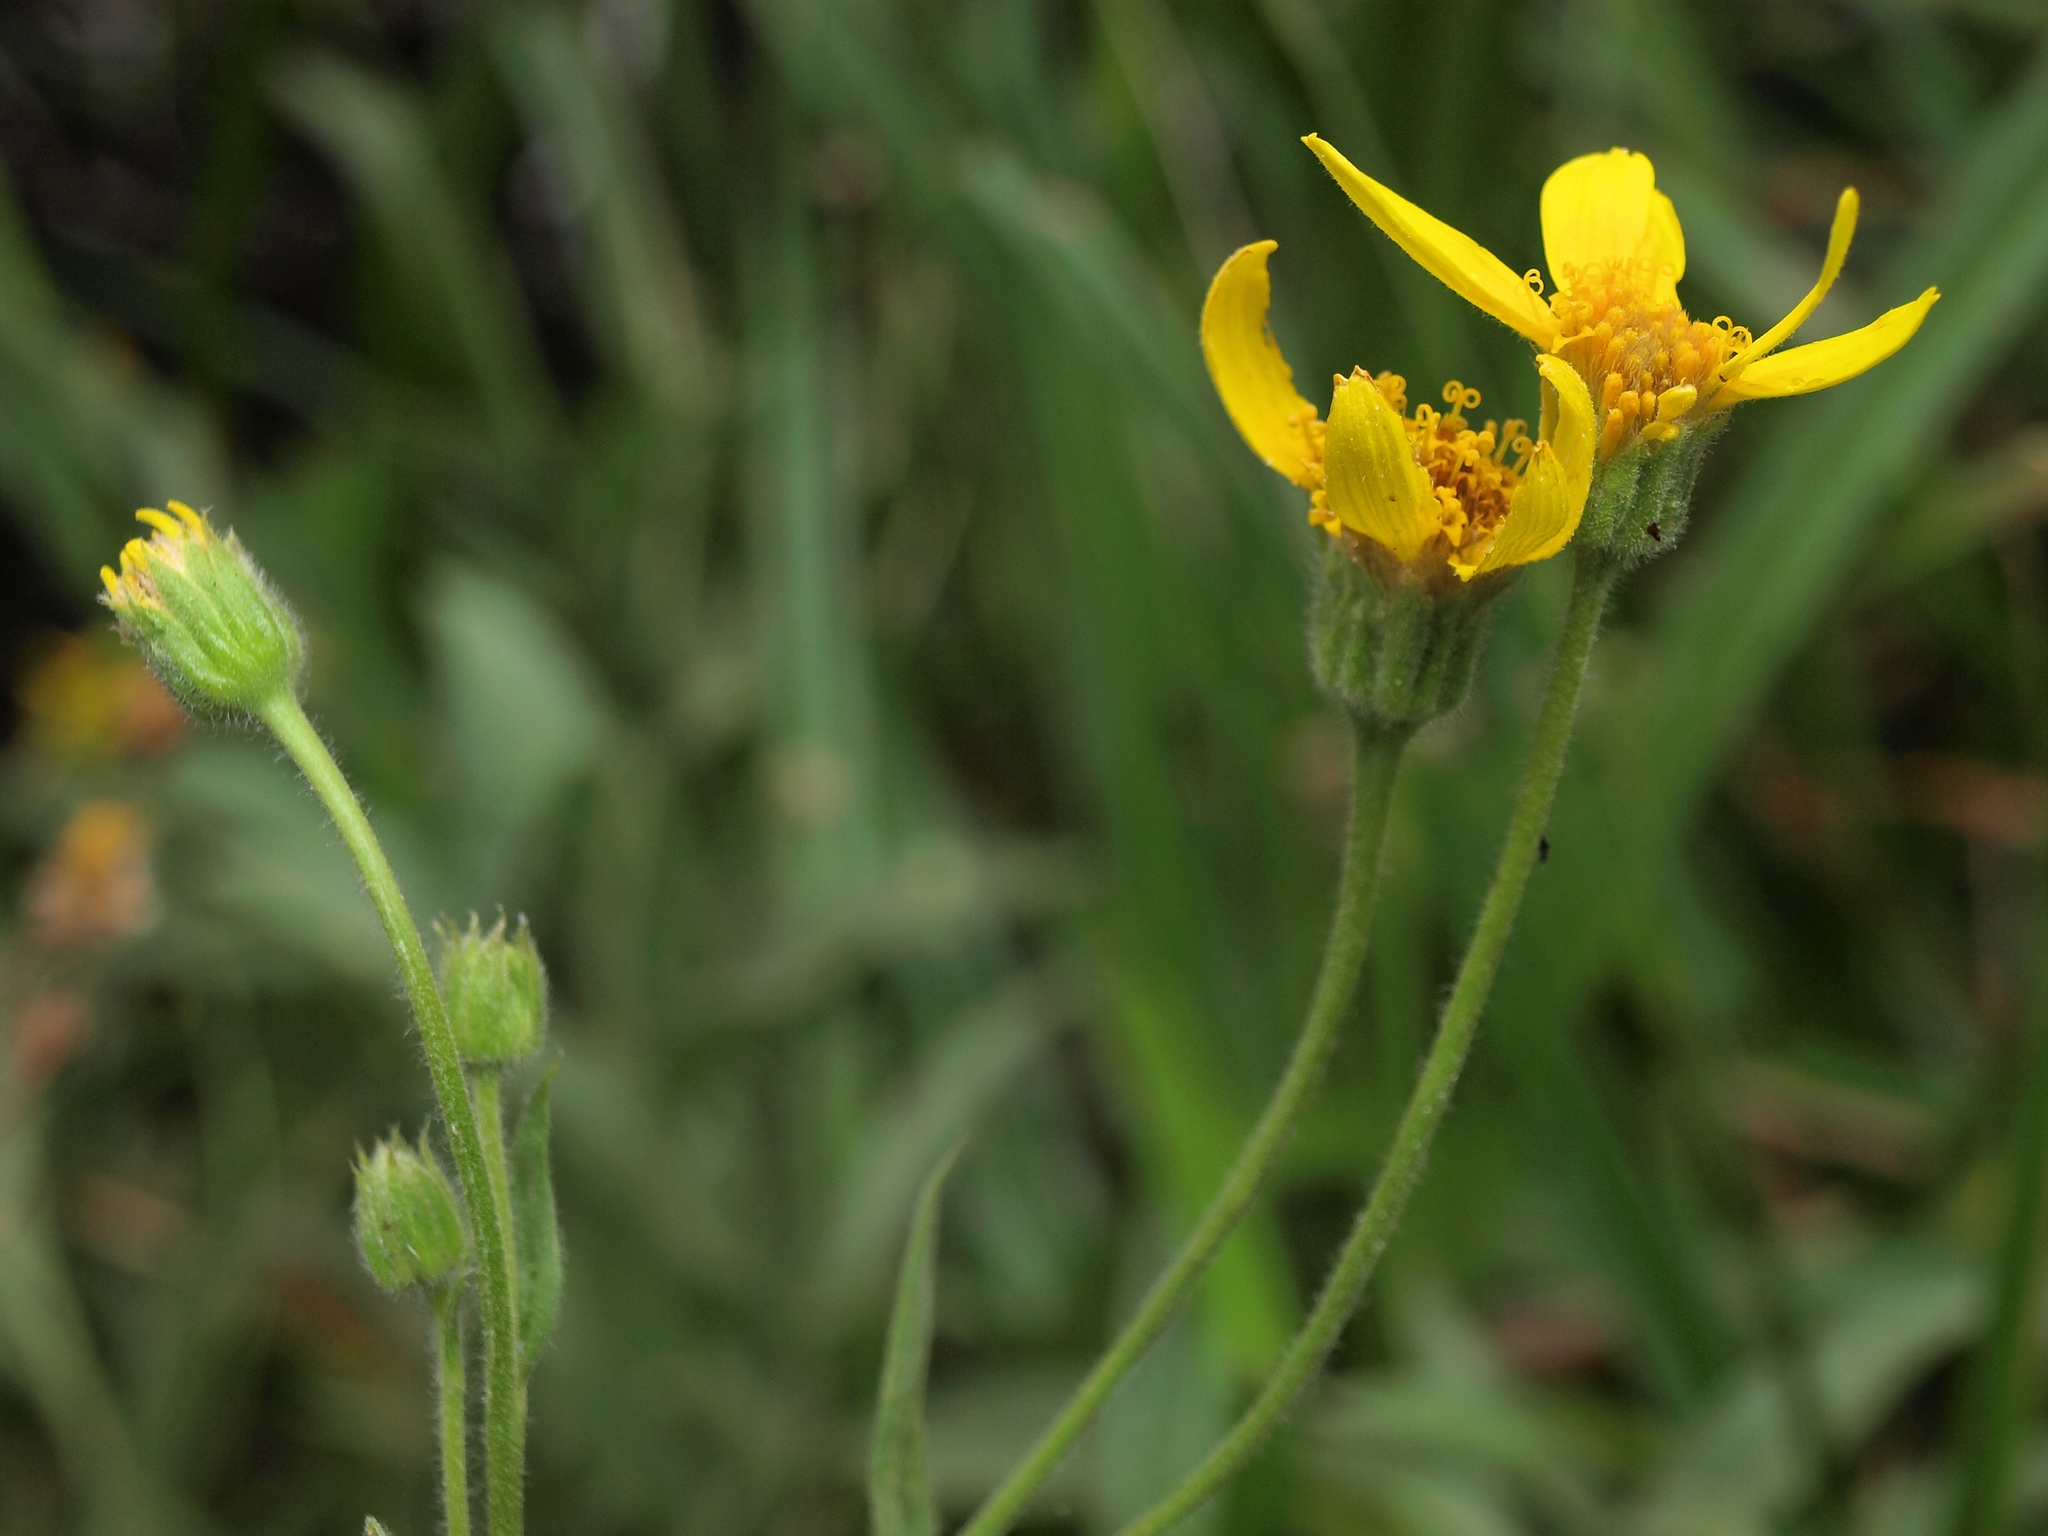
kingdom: Plantae
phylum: Tracheophyta
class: Magnoliopsida
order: Asterales
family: Asteraceae
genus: Arnica
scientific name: Arnica longifolia
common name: Spear-leaf arnica
